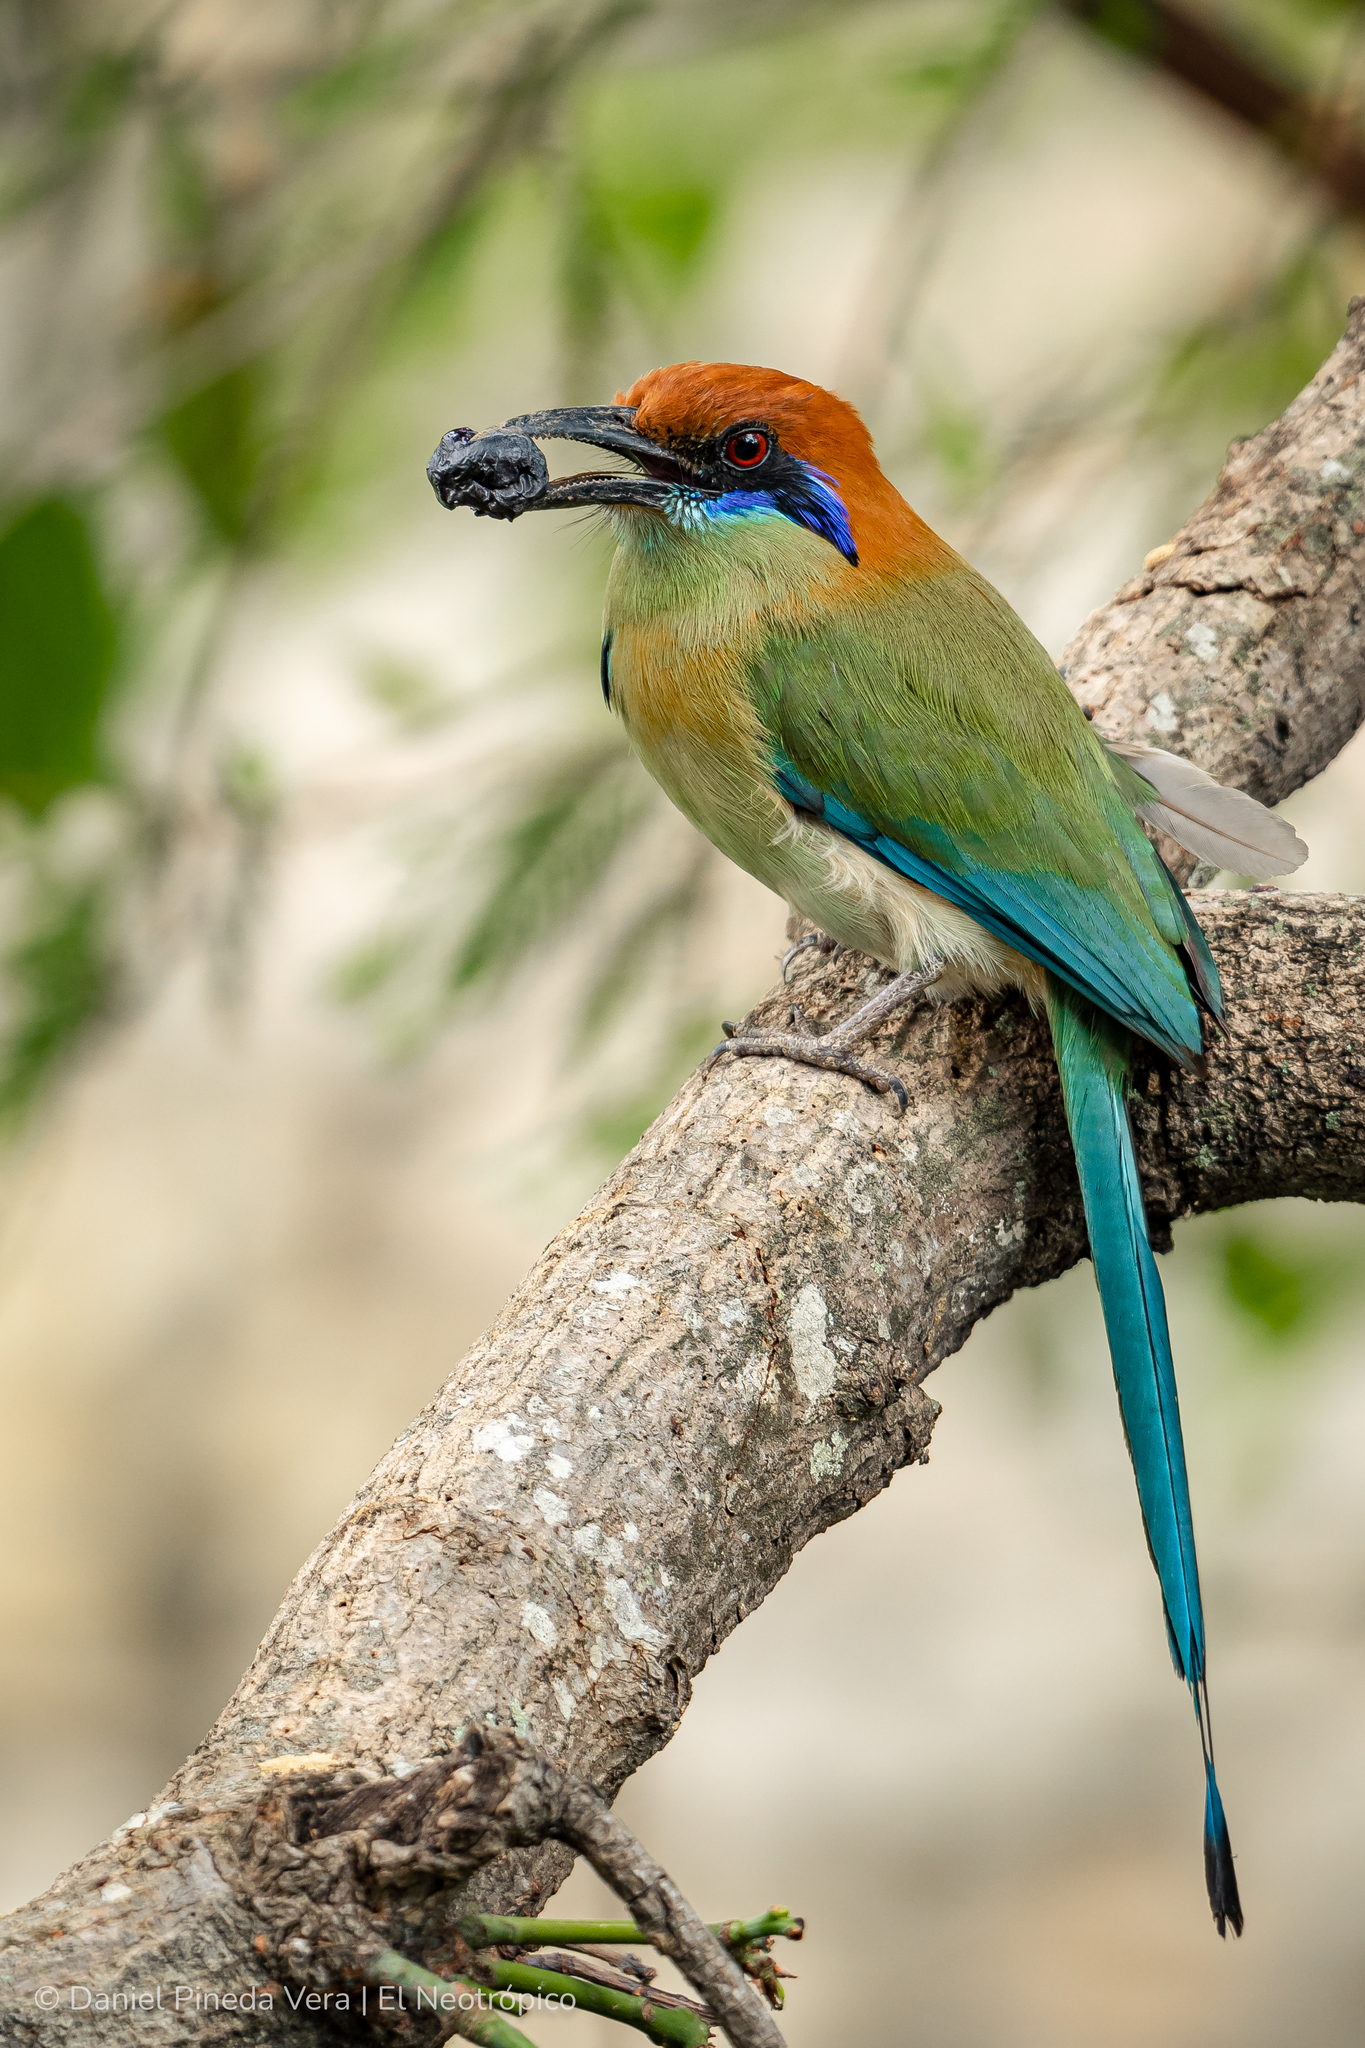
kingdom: Animalia
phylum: Chordata
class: Aves
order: Coraciiformes
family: Momotidae
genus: Momotus
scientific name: Momotus mexicanus
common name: Russet-crowned motmot
